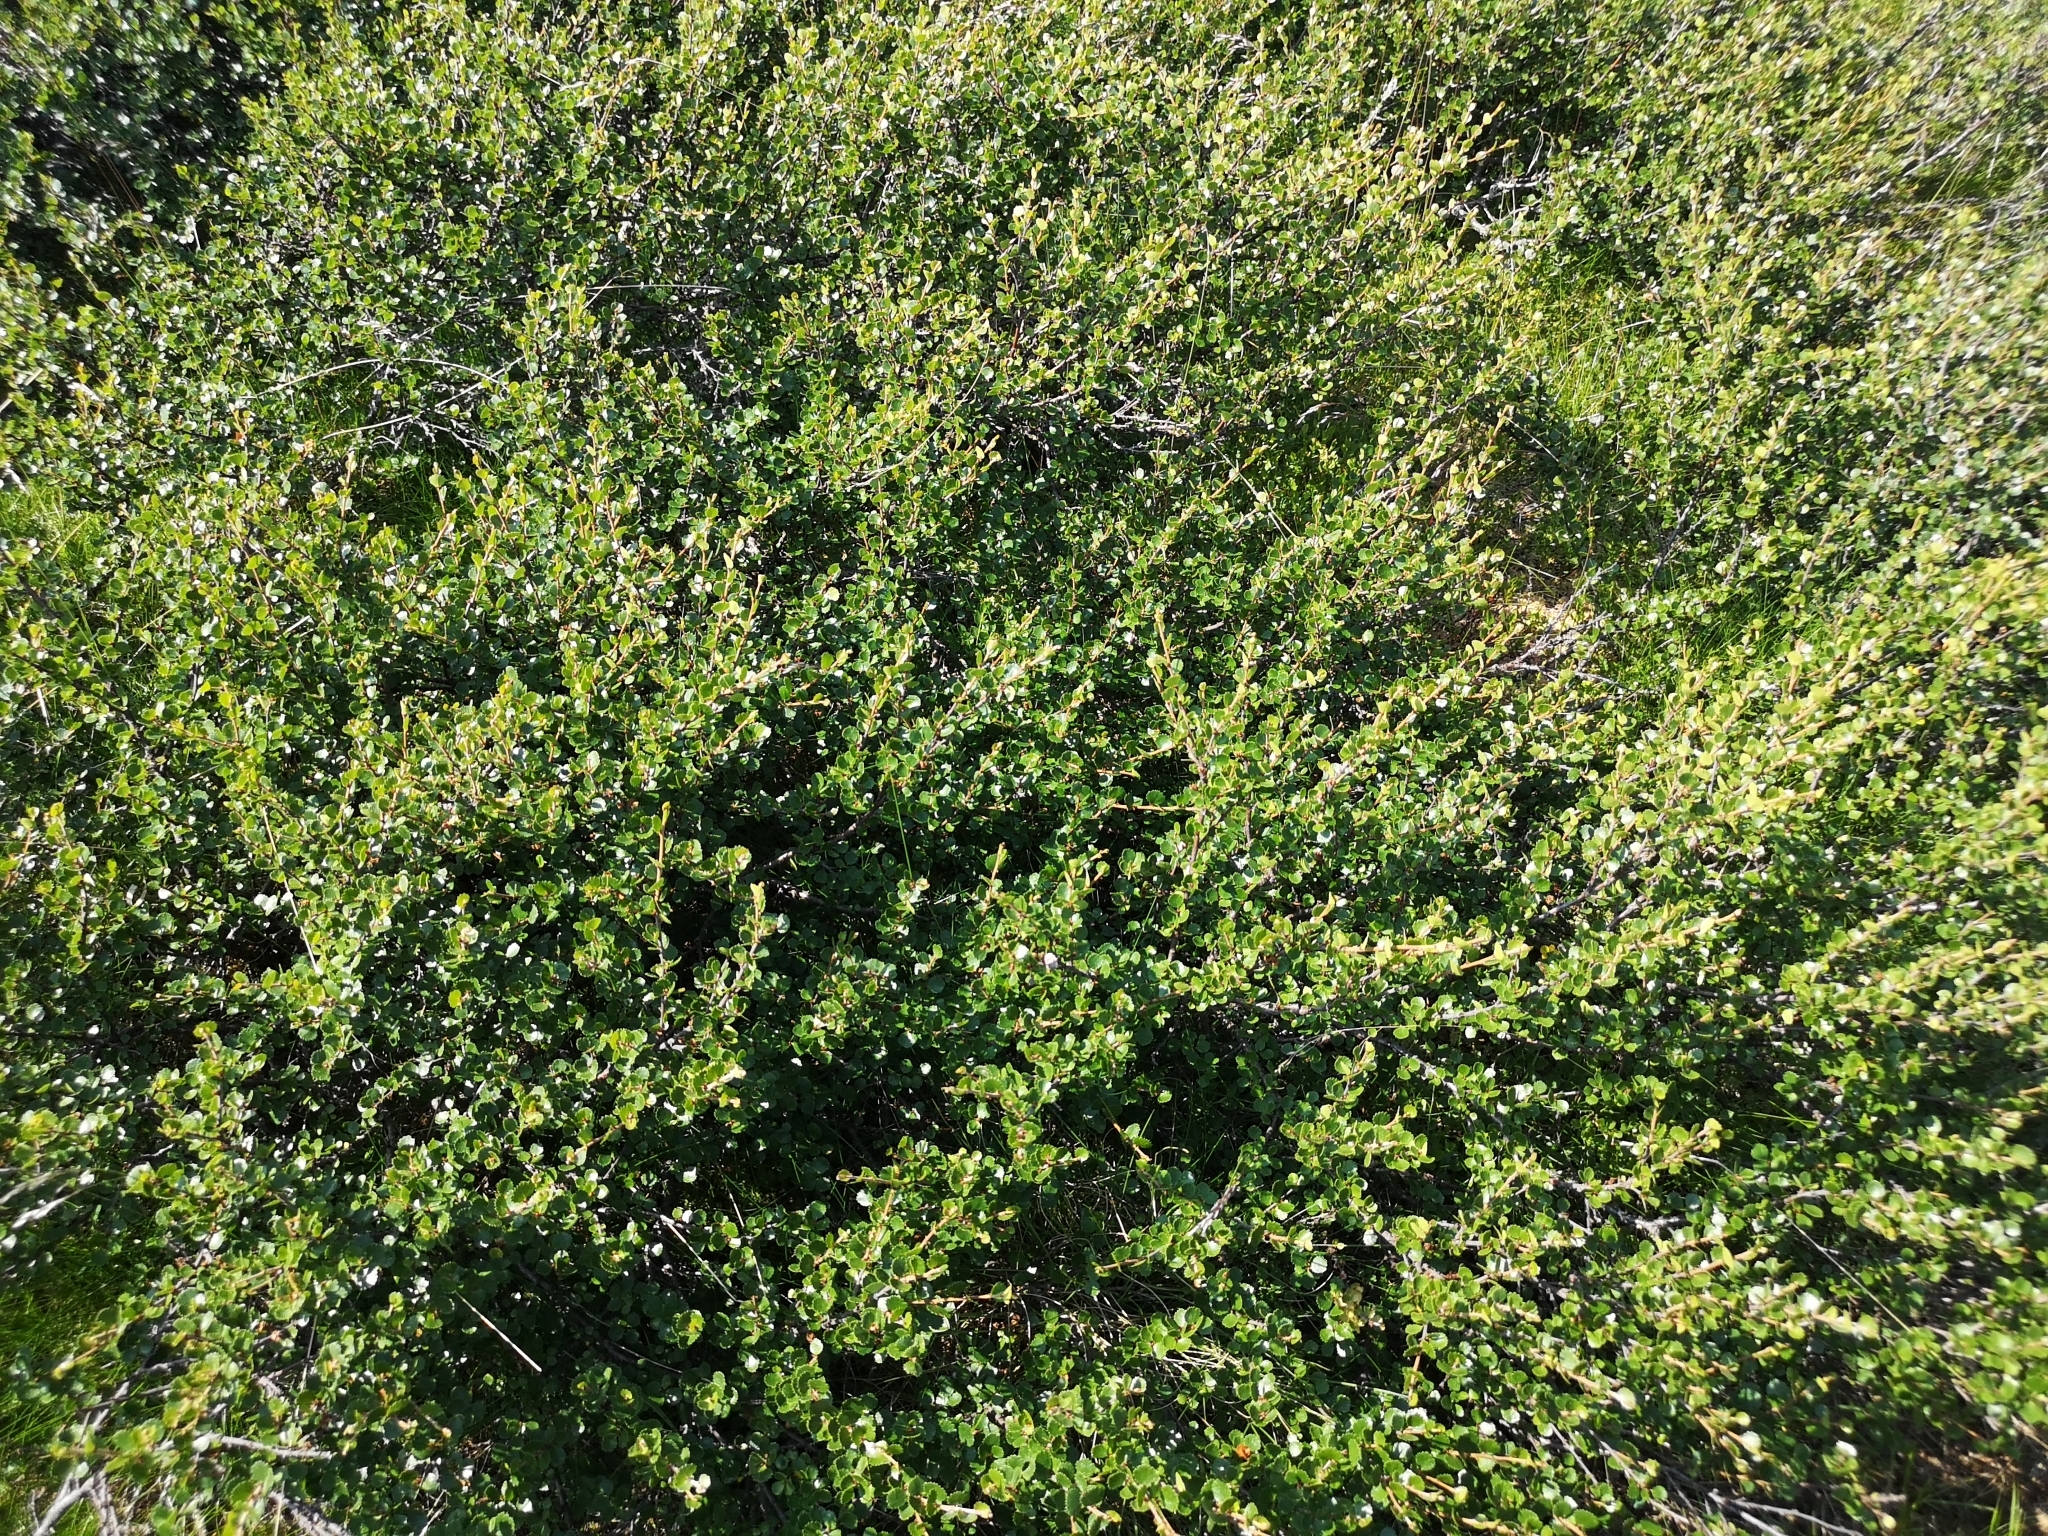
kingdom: Plantae
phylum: Tracheophyta
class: Magnoliopsida
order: Fagales
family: Betulaceae
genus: Betula
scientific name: Betula nana
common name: Arctic dwarf birch
